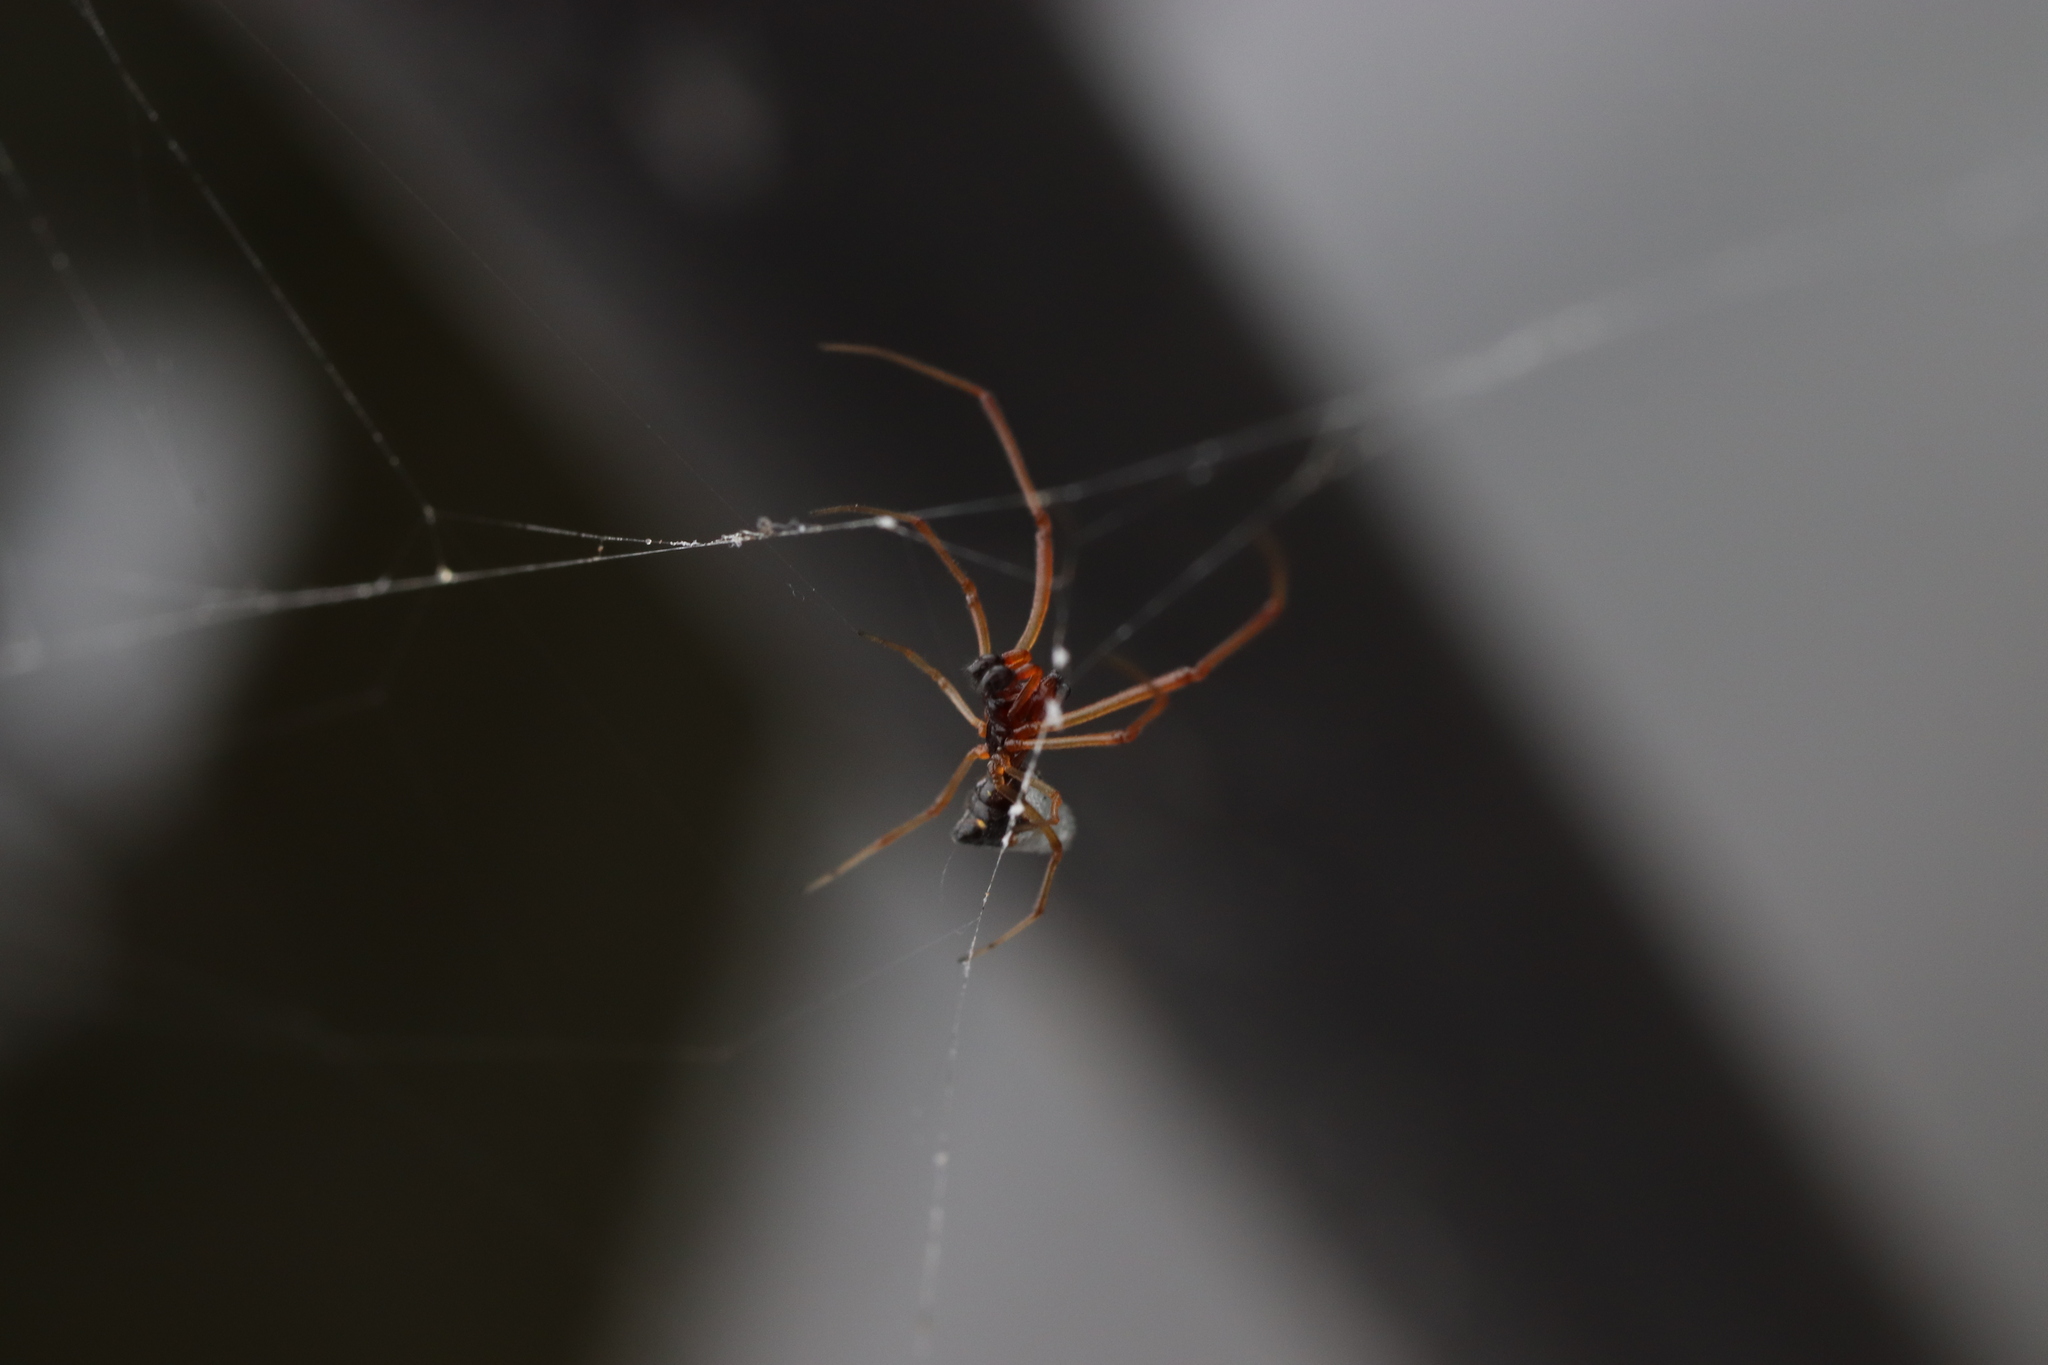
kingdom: Animalia
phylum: Arthropoda
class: Arachnida
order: Araneae
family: Theridiidae
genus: Argyrodes
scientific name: Argyrodes bonadea
